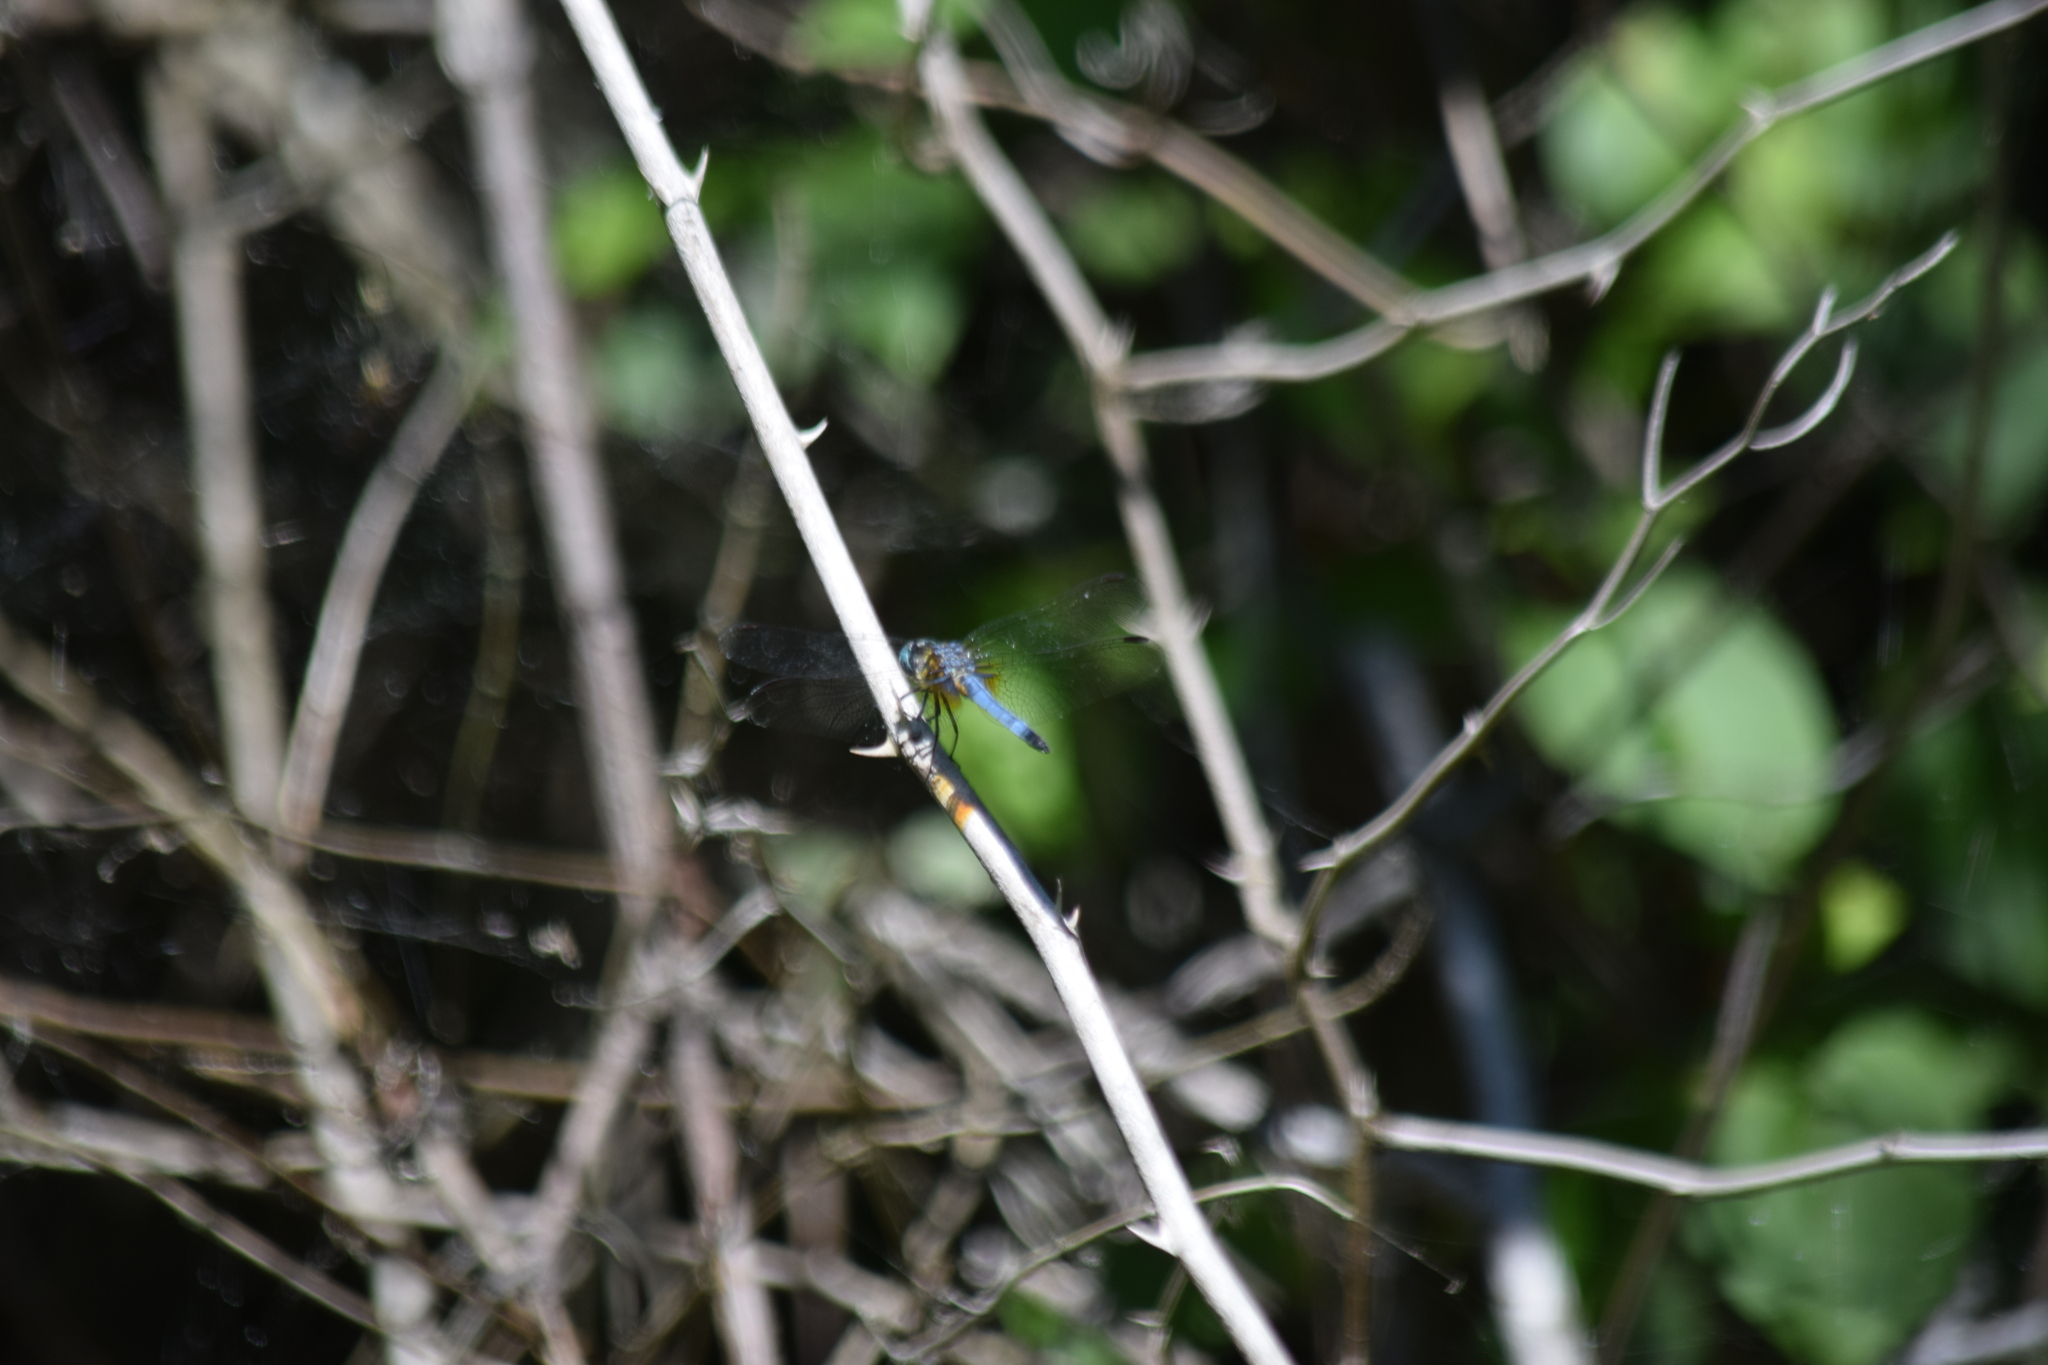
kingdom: Animalia
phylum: Arthropoda
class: Insecta
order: Odonata
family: Libellulidae
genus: Pachydiplax
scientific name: Pachydiplax longipennis
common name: Blue dasher
